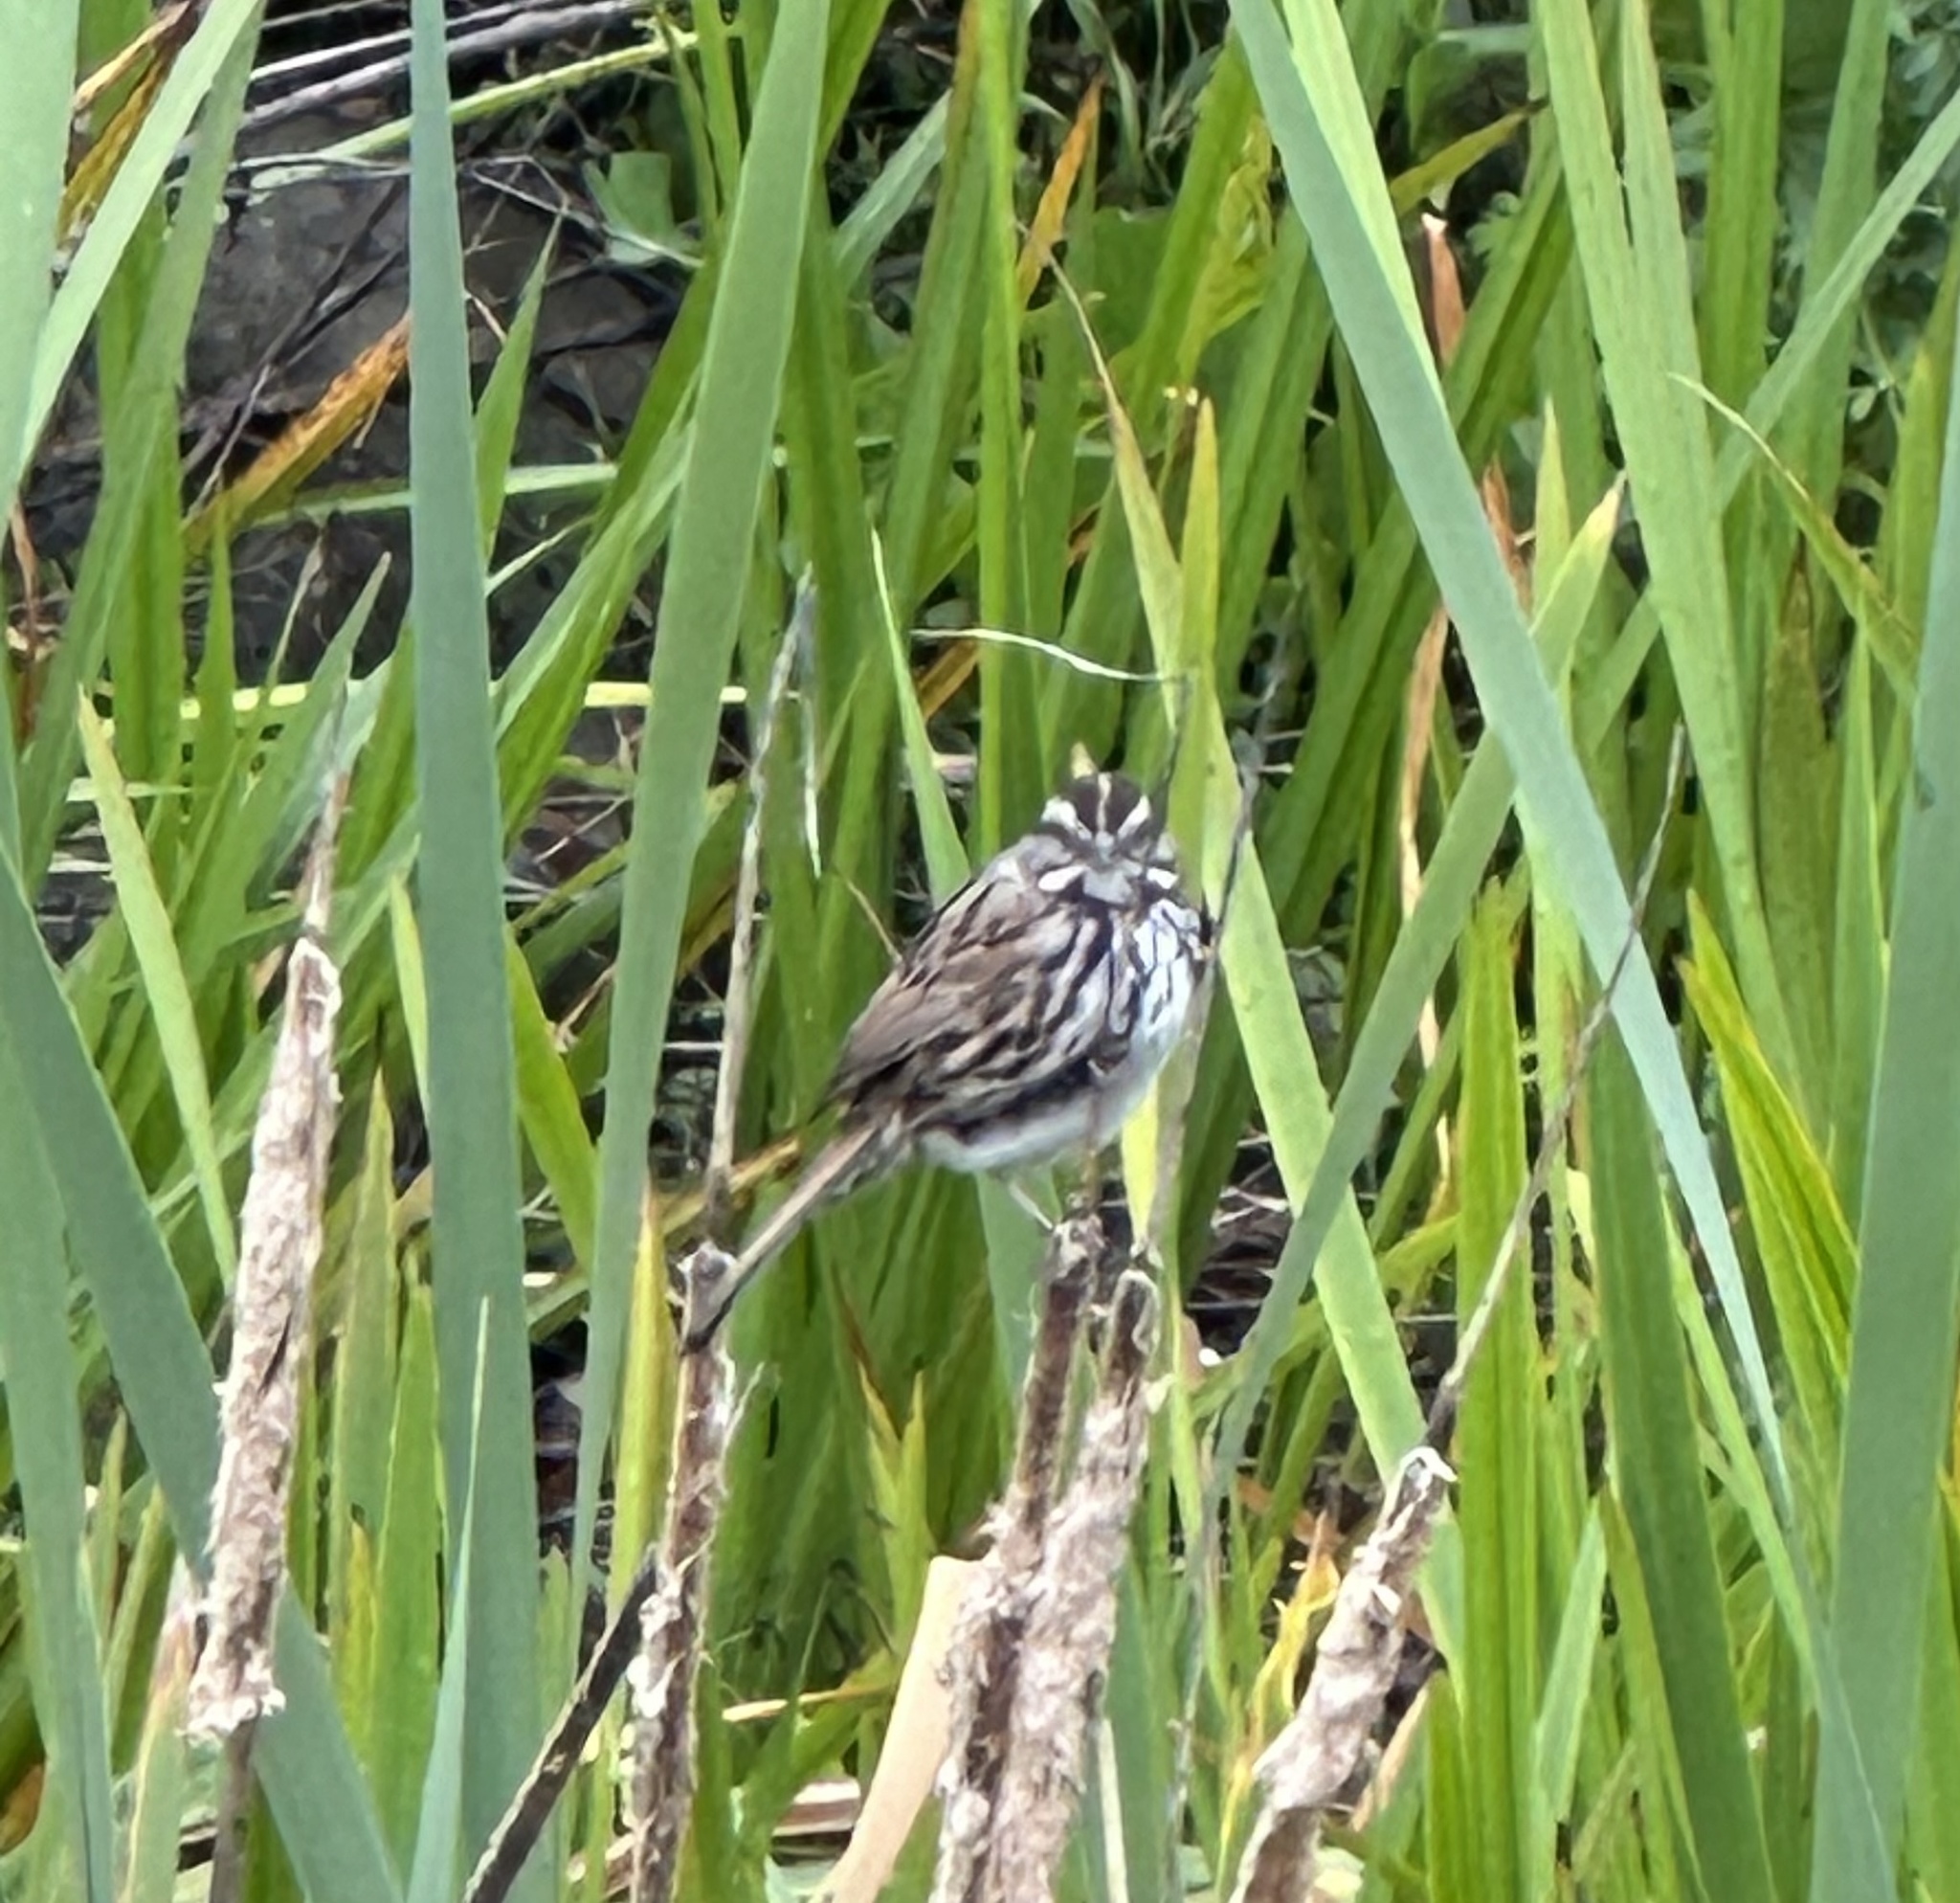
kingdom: Animalia
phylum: Chordata
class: Aves
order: Passeriformes
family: Passerellidae
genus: Melospiza
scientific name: Melospiza melodia
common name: Song sparrow
